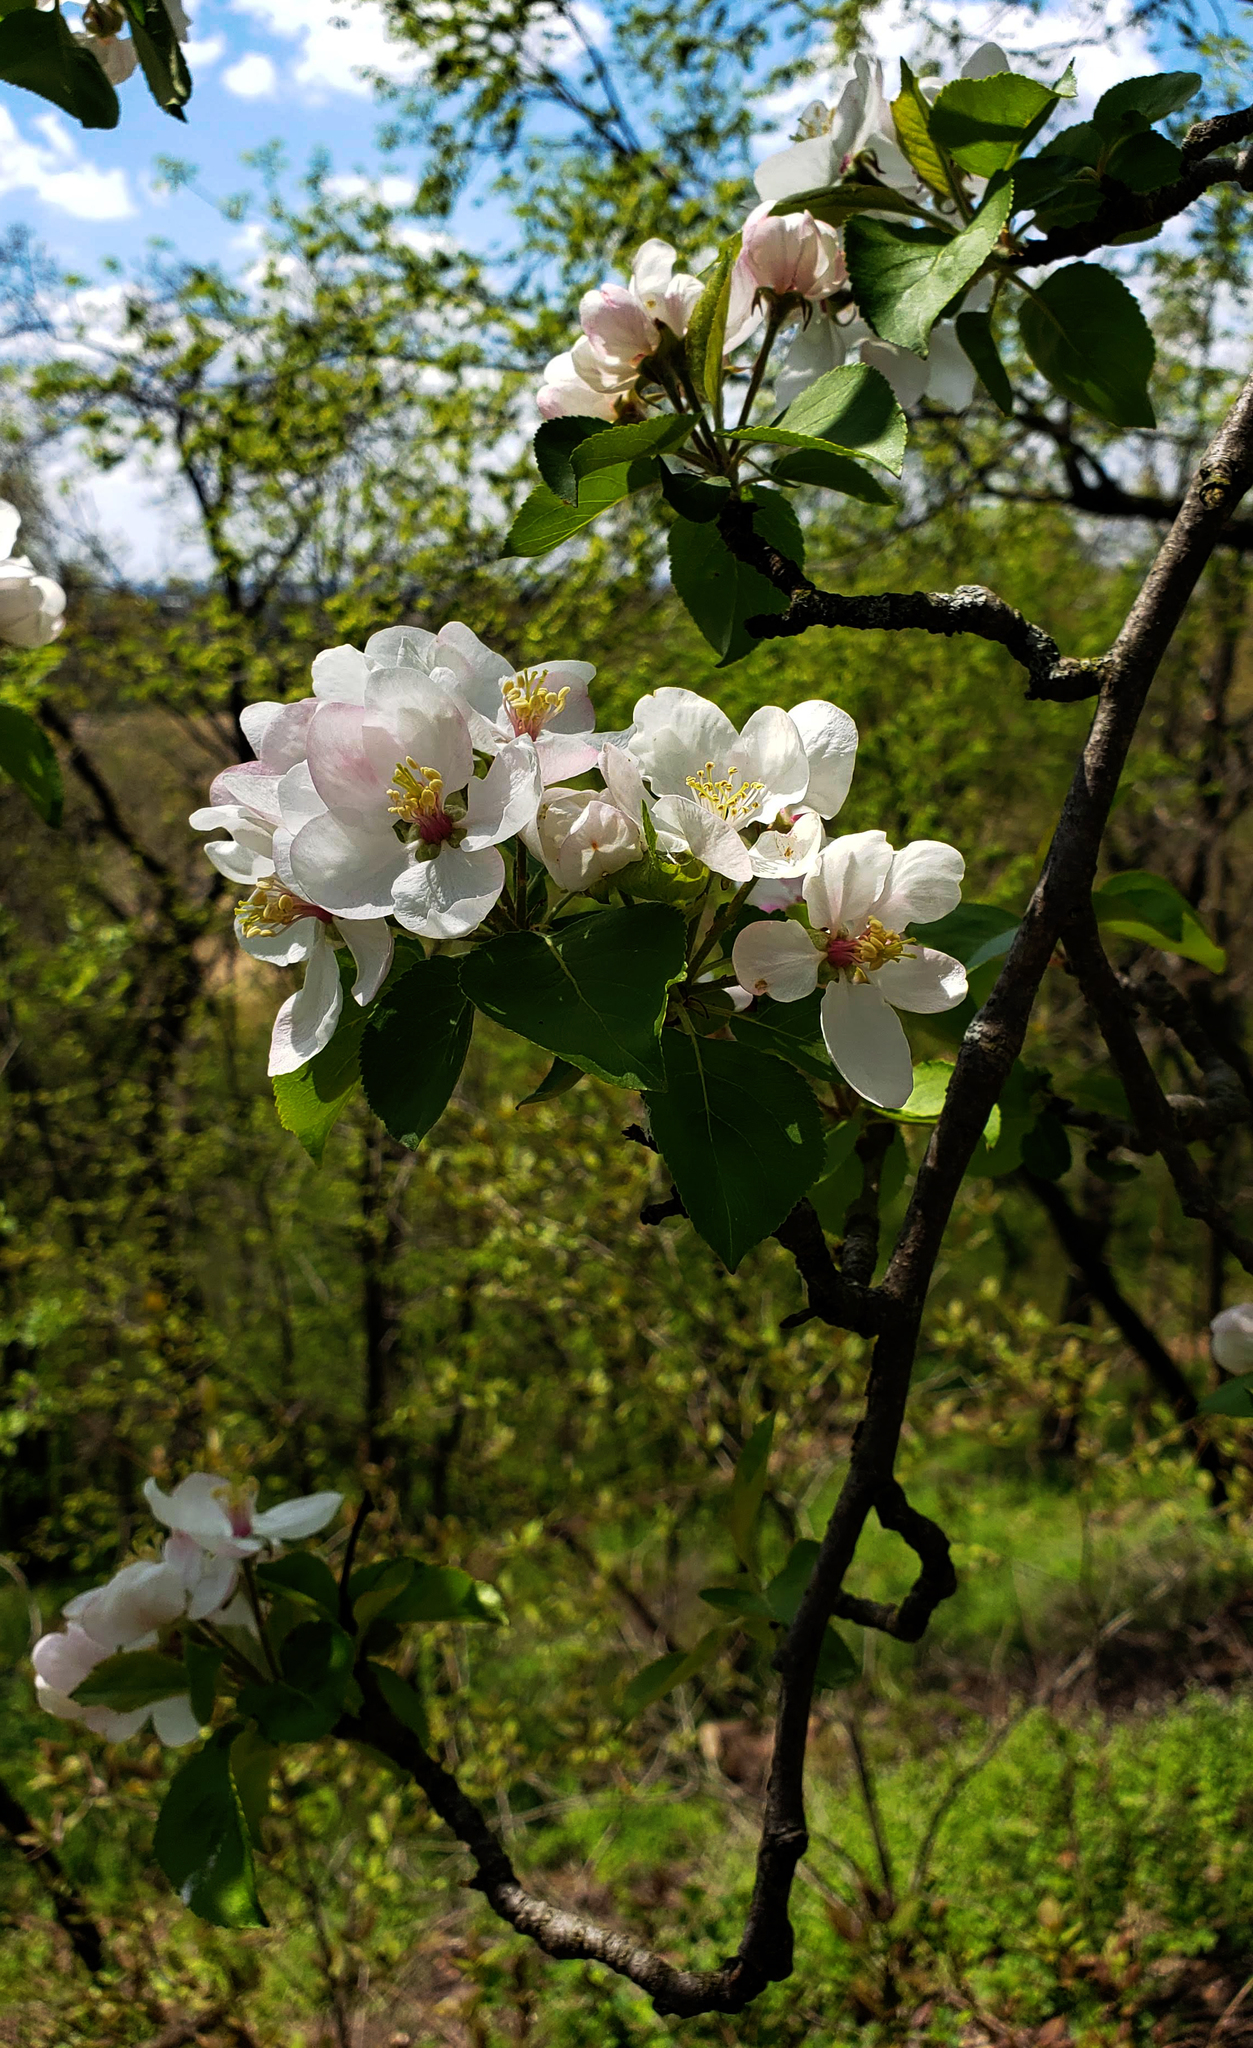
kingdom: Plantae
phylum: Tracheophyta
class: Magnoliopsida
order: Rosales
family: Rosaceae
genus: Malus
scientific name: Malus domestica
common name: Apple
